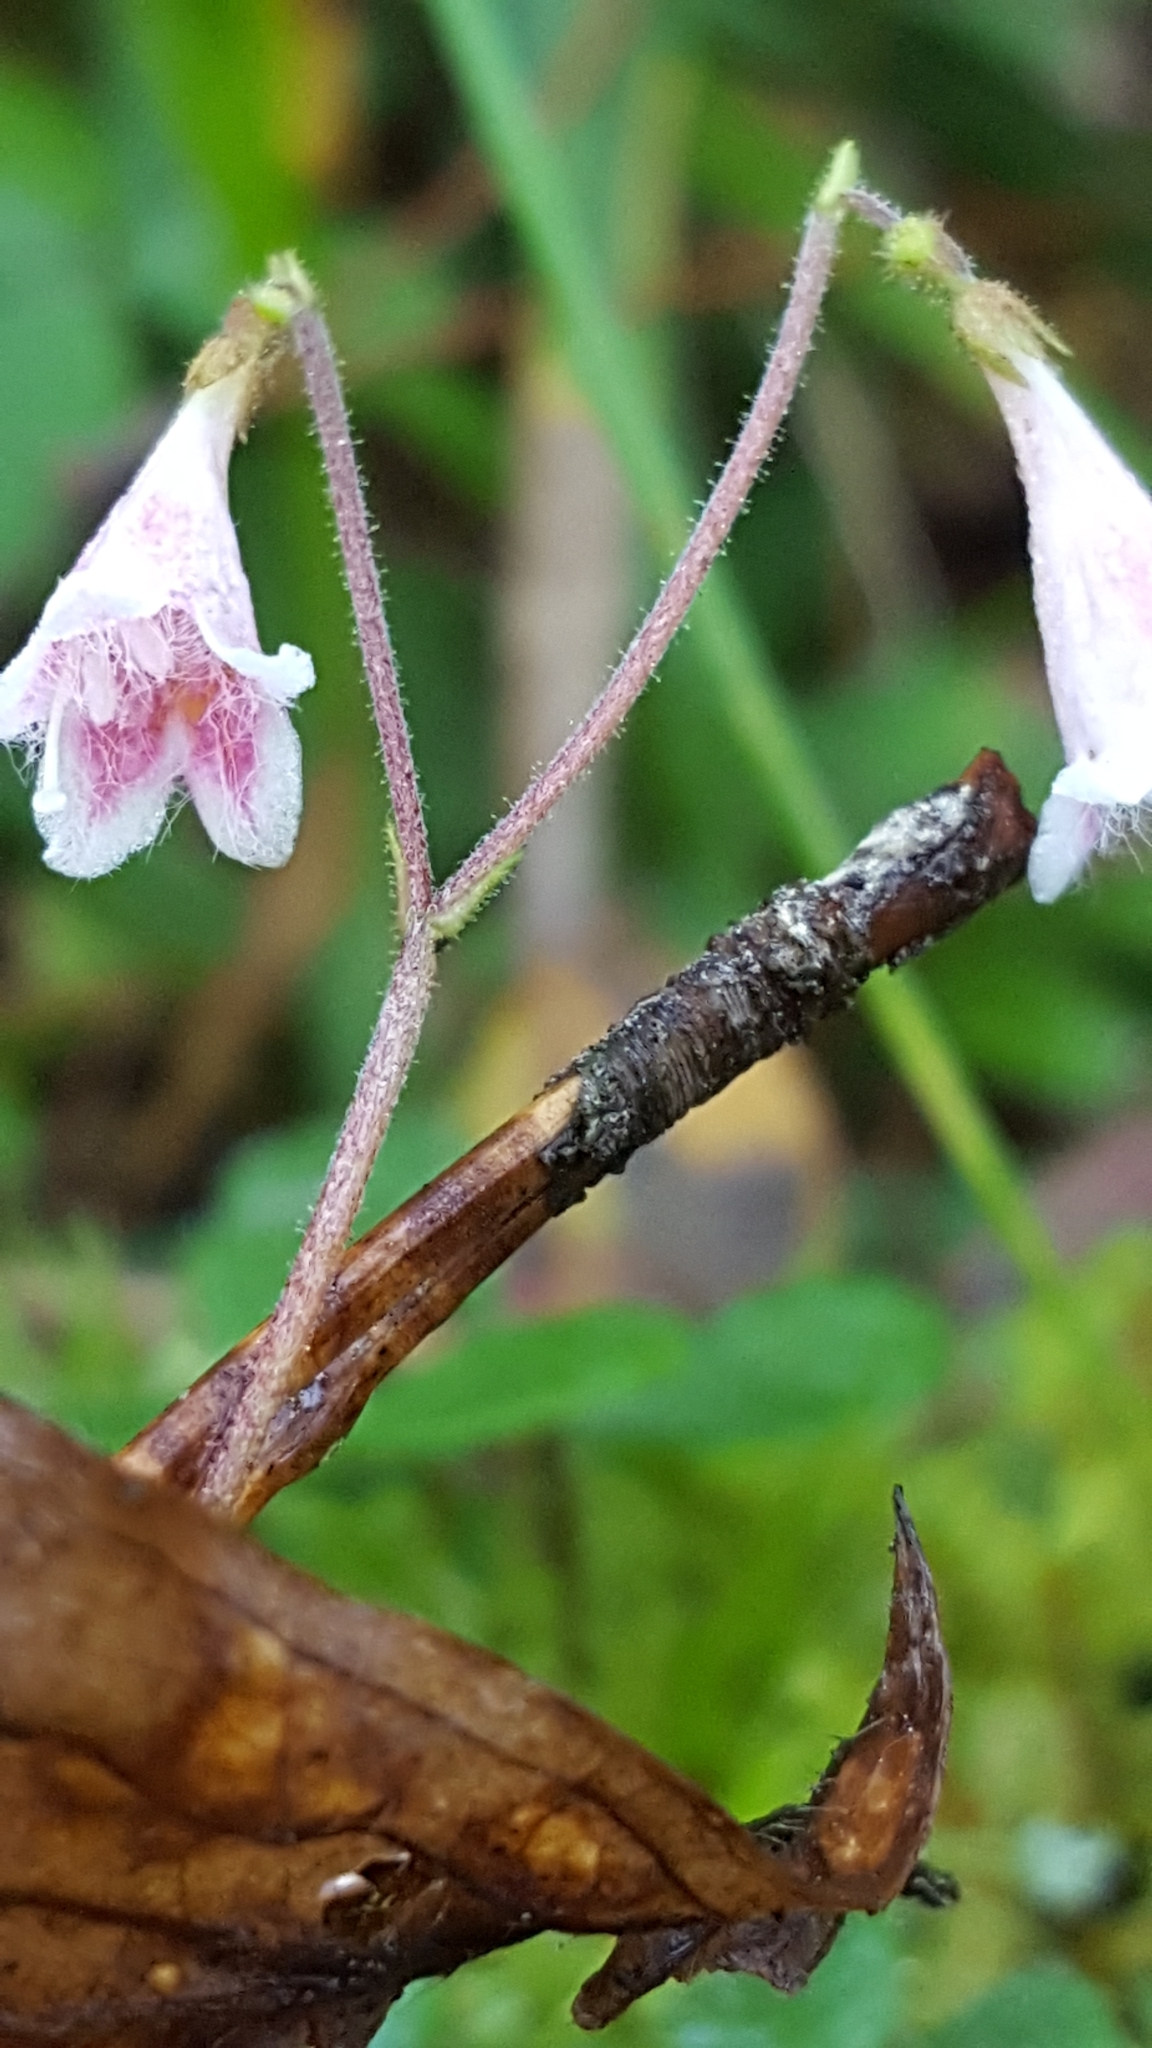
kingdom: Plantae
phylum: Tracheophyta
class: Magnoliopsida
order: Dipsacales
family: Caprifoliaceae
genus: Linnaea
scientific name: Linnaea borealis
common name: Twinflower
